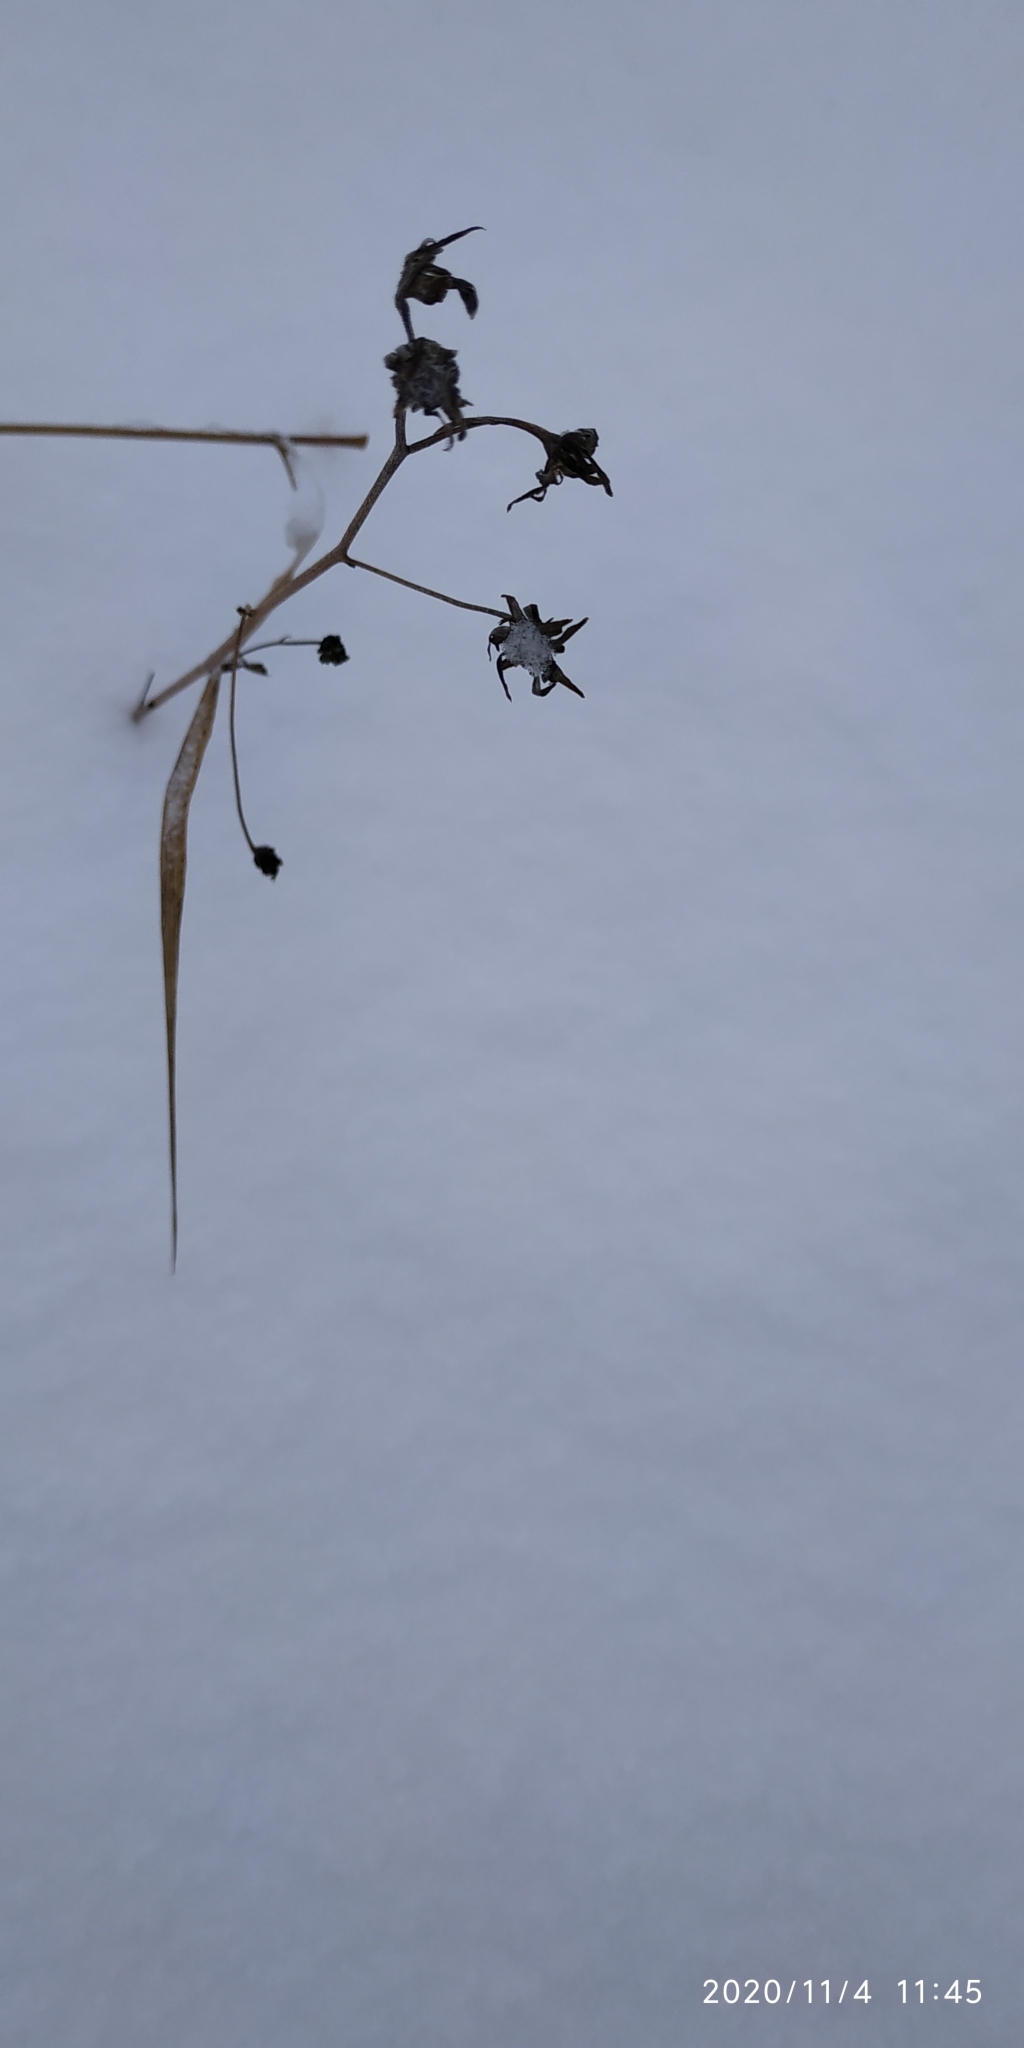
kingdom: Plantae
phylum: Tracheophyta
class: Magnoliopsida
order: Asterales
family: Asteraceae
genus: Crepis
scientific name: Crepis tectorum
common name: Narrow-leaved hawk's-beard
